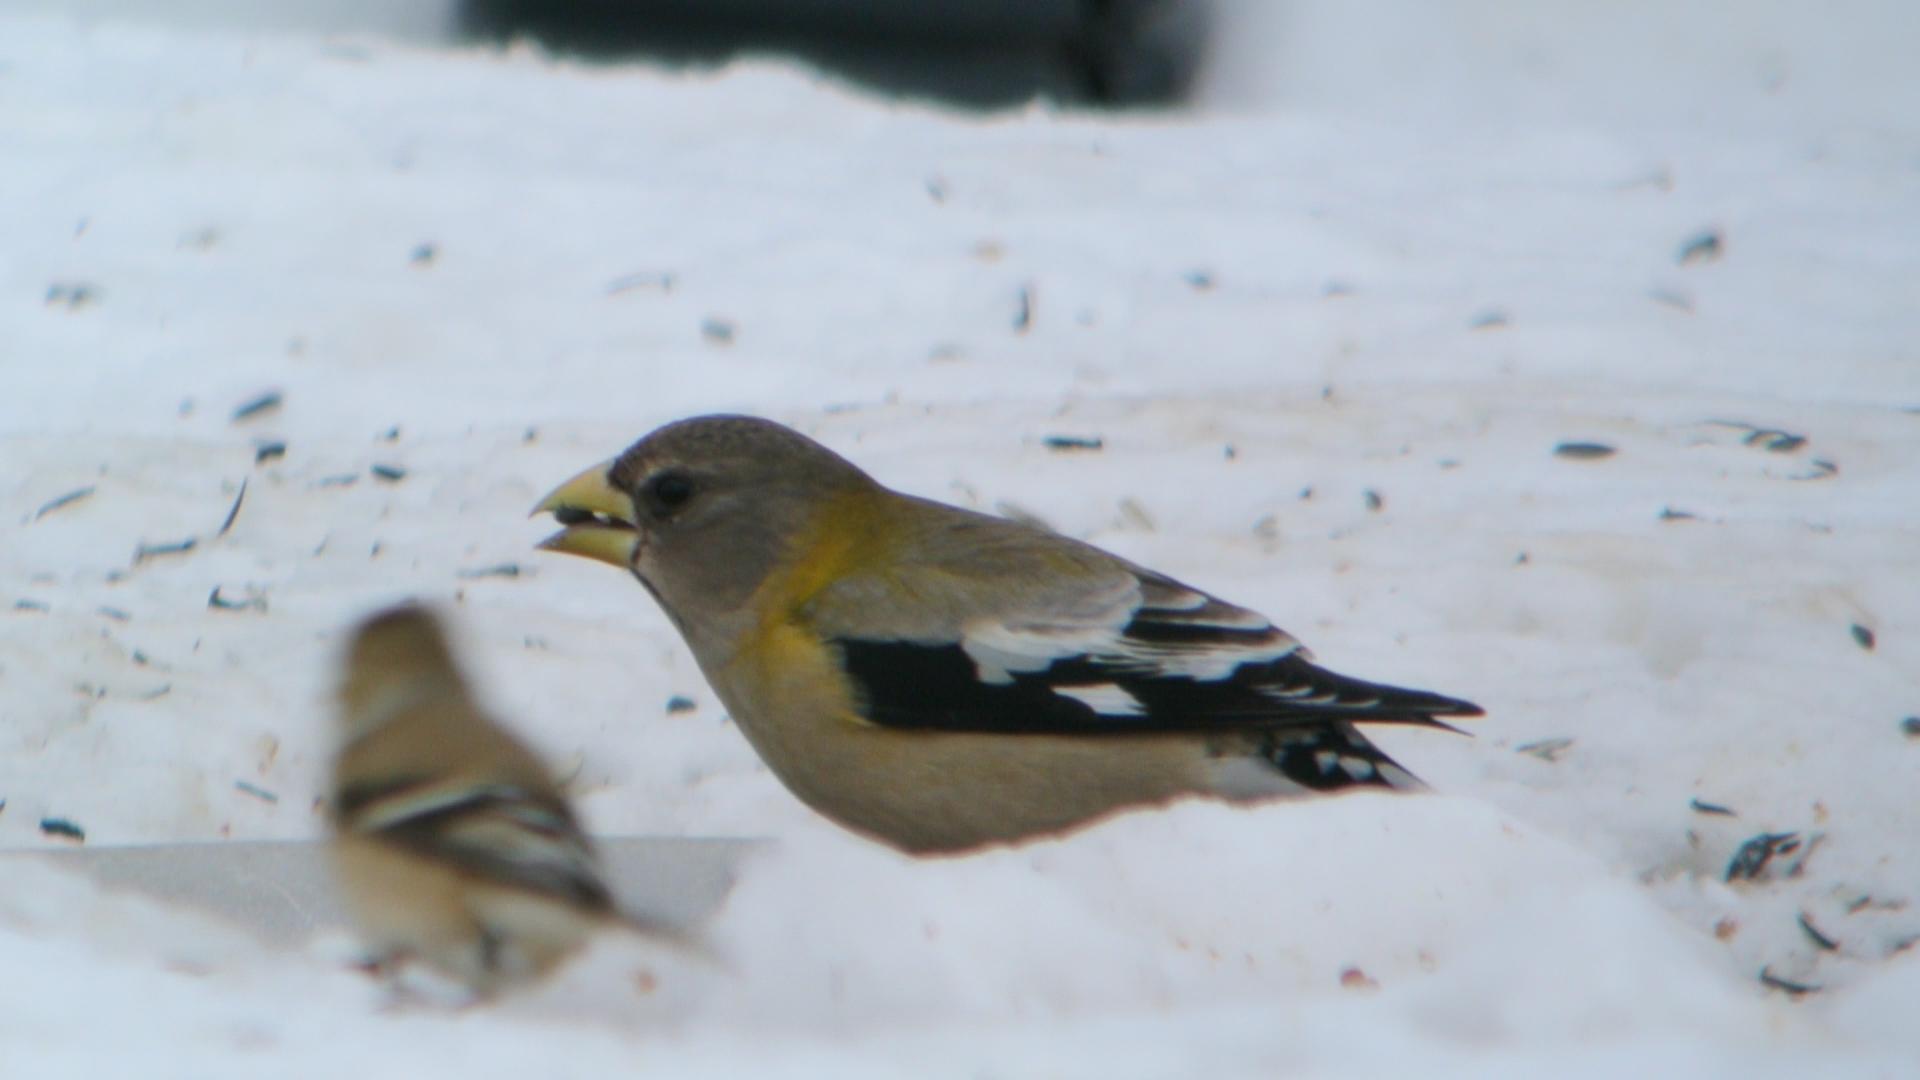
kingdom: Animalia
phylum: Chordata
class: Aves
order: Passeriformes
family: Fringillidae
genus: Hesperiphona
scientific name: Hesperiphona vespertina
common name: Evening grosbeak
